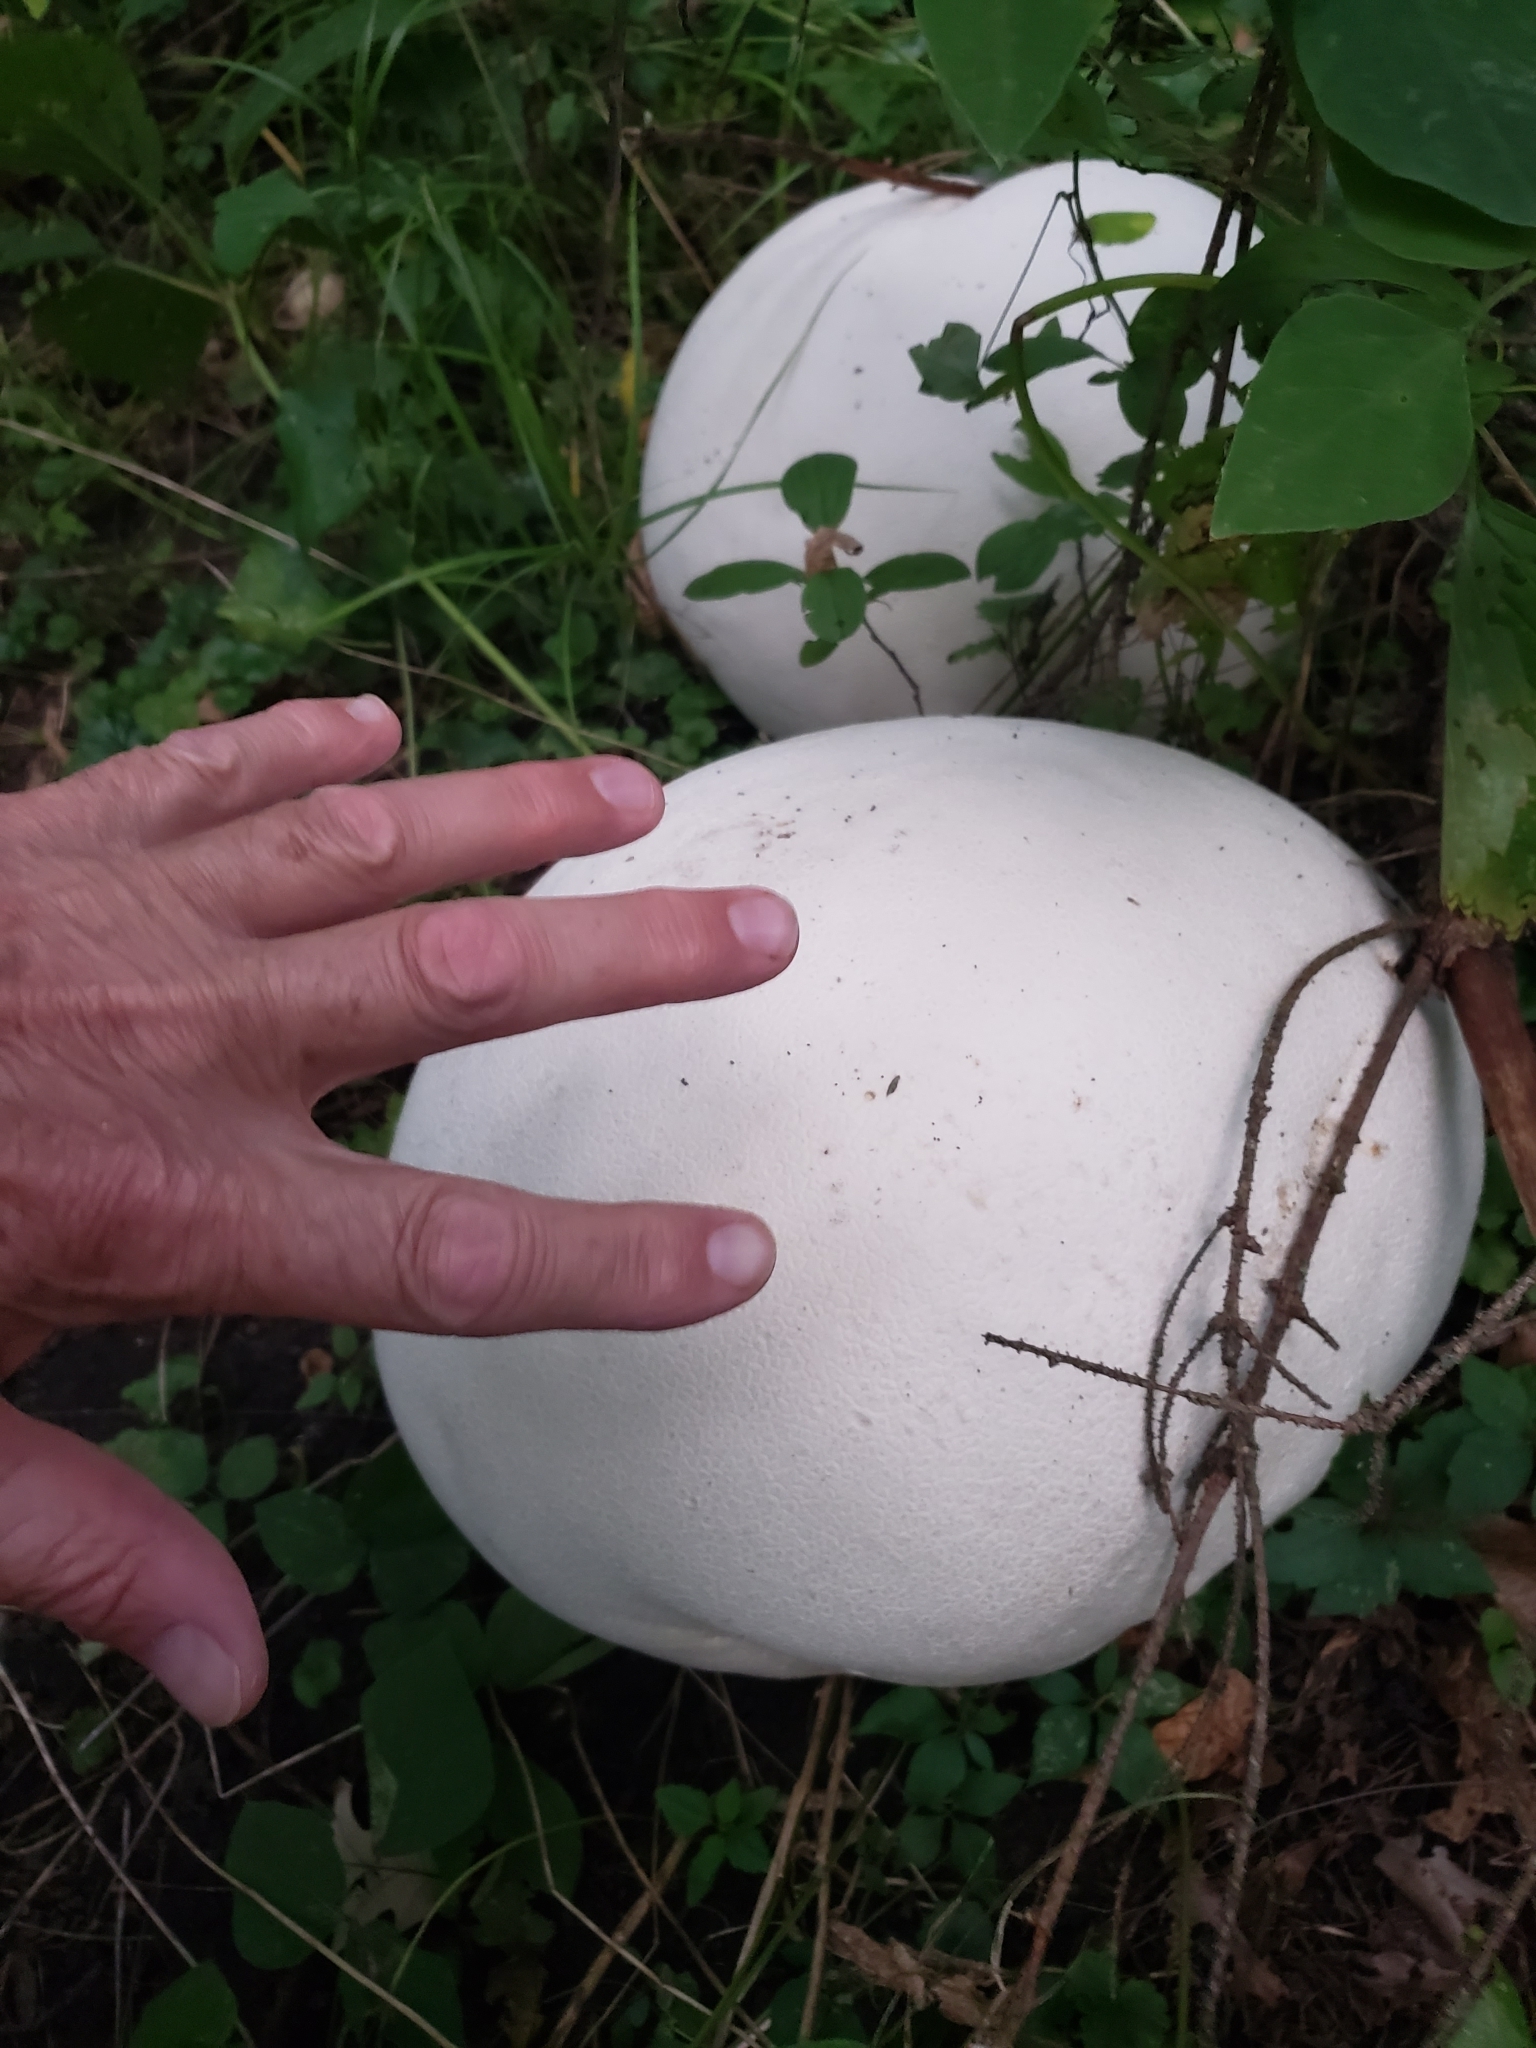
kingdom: Fungi
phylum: Basidiomycota
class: Agaricomycetes
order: Agaricales
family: Lycoperdaceae
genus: Calvatia
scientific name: Calvatia gigantea
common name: Giant puffball
